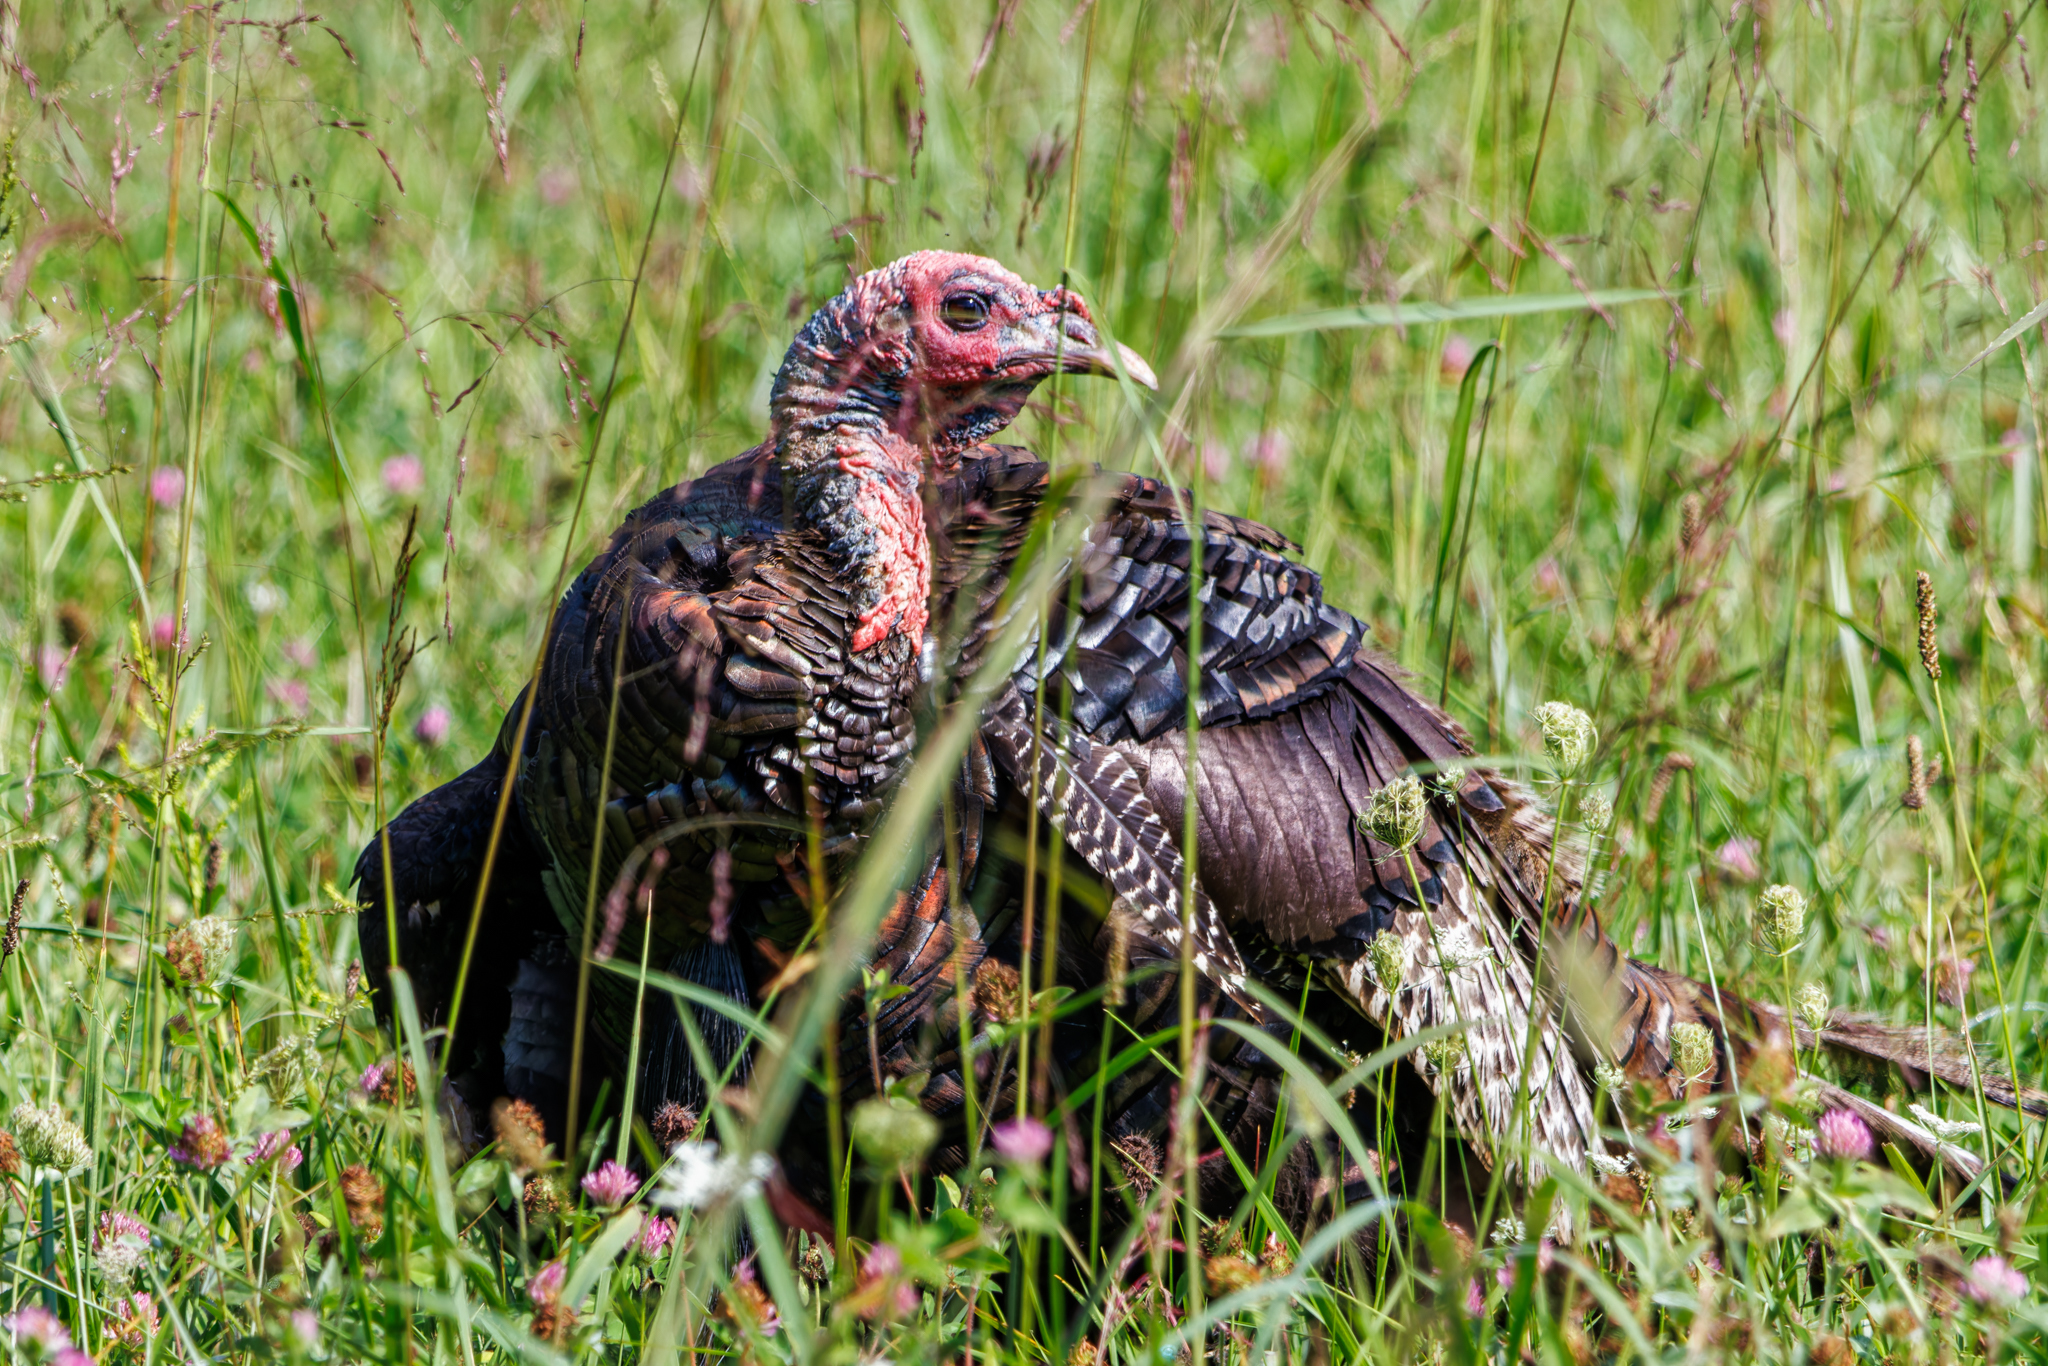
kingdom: Animalia
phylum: Chordata
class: Aves
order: Galliformes
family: Phasianidae
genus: Meleagris
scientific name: Meleagris gallopavo
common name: Wild turkey
